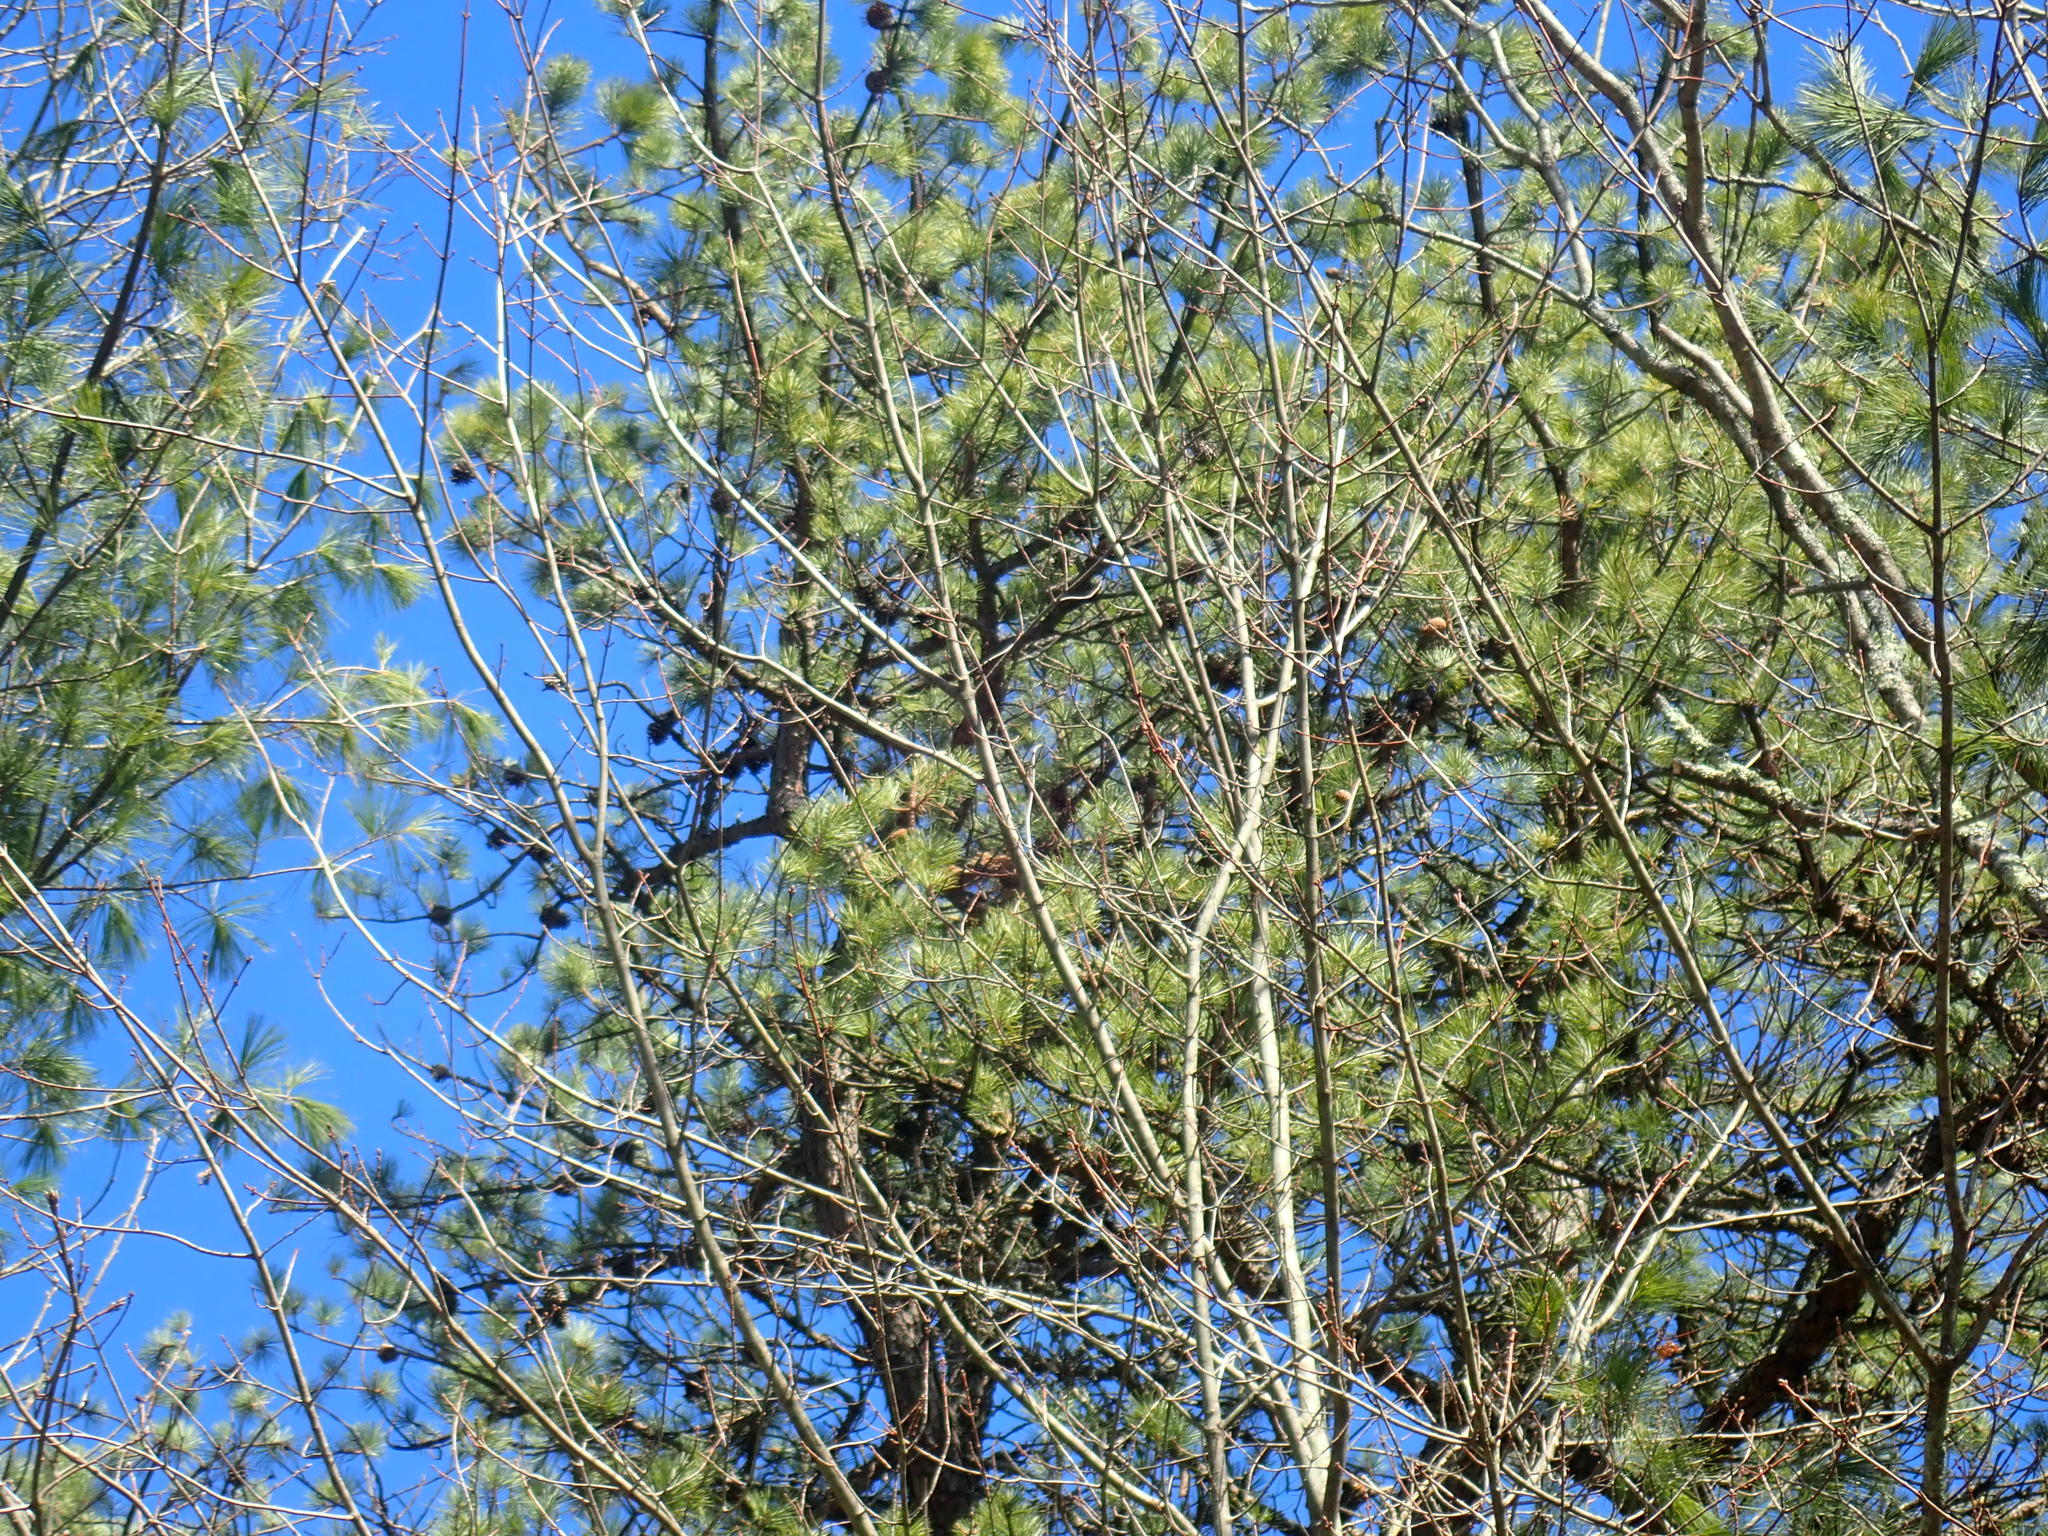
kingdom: Plantae
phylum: Tracheophyta
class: Pinopsida
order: Pinales
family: Pinaceae
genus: Pinus
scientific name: Pinus rigida
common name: Pitch pine
